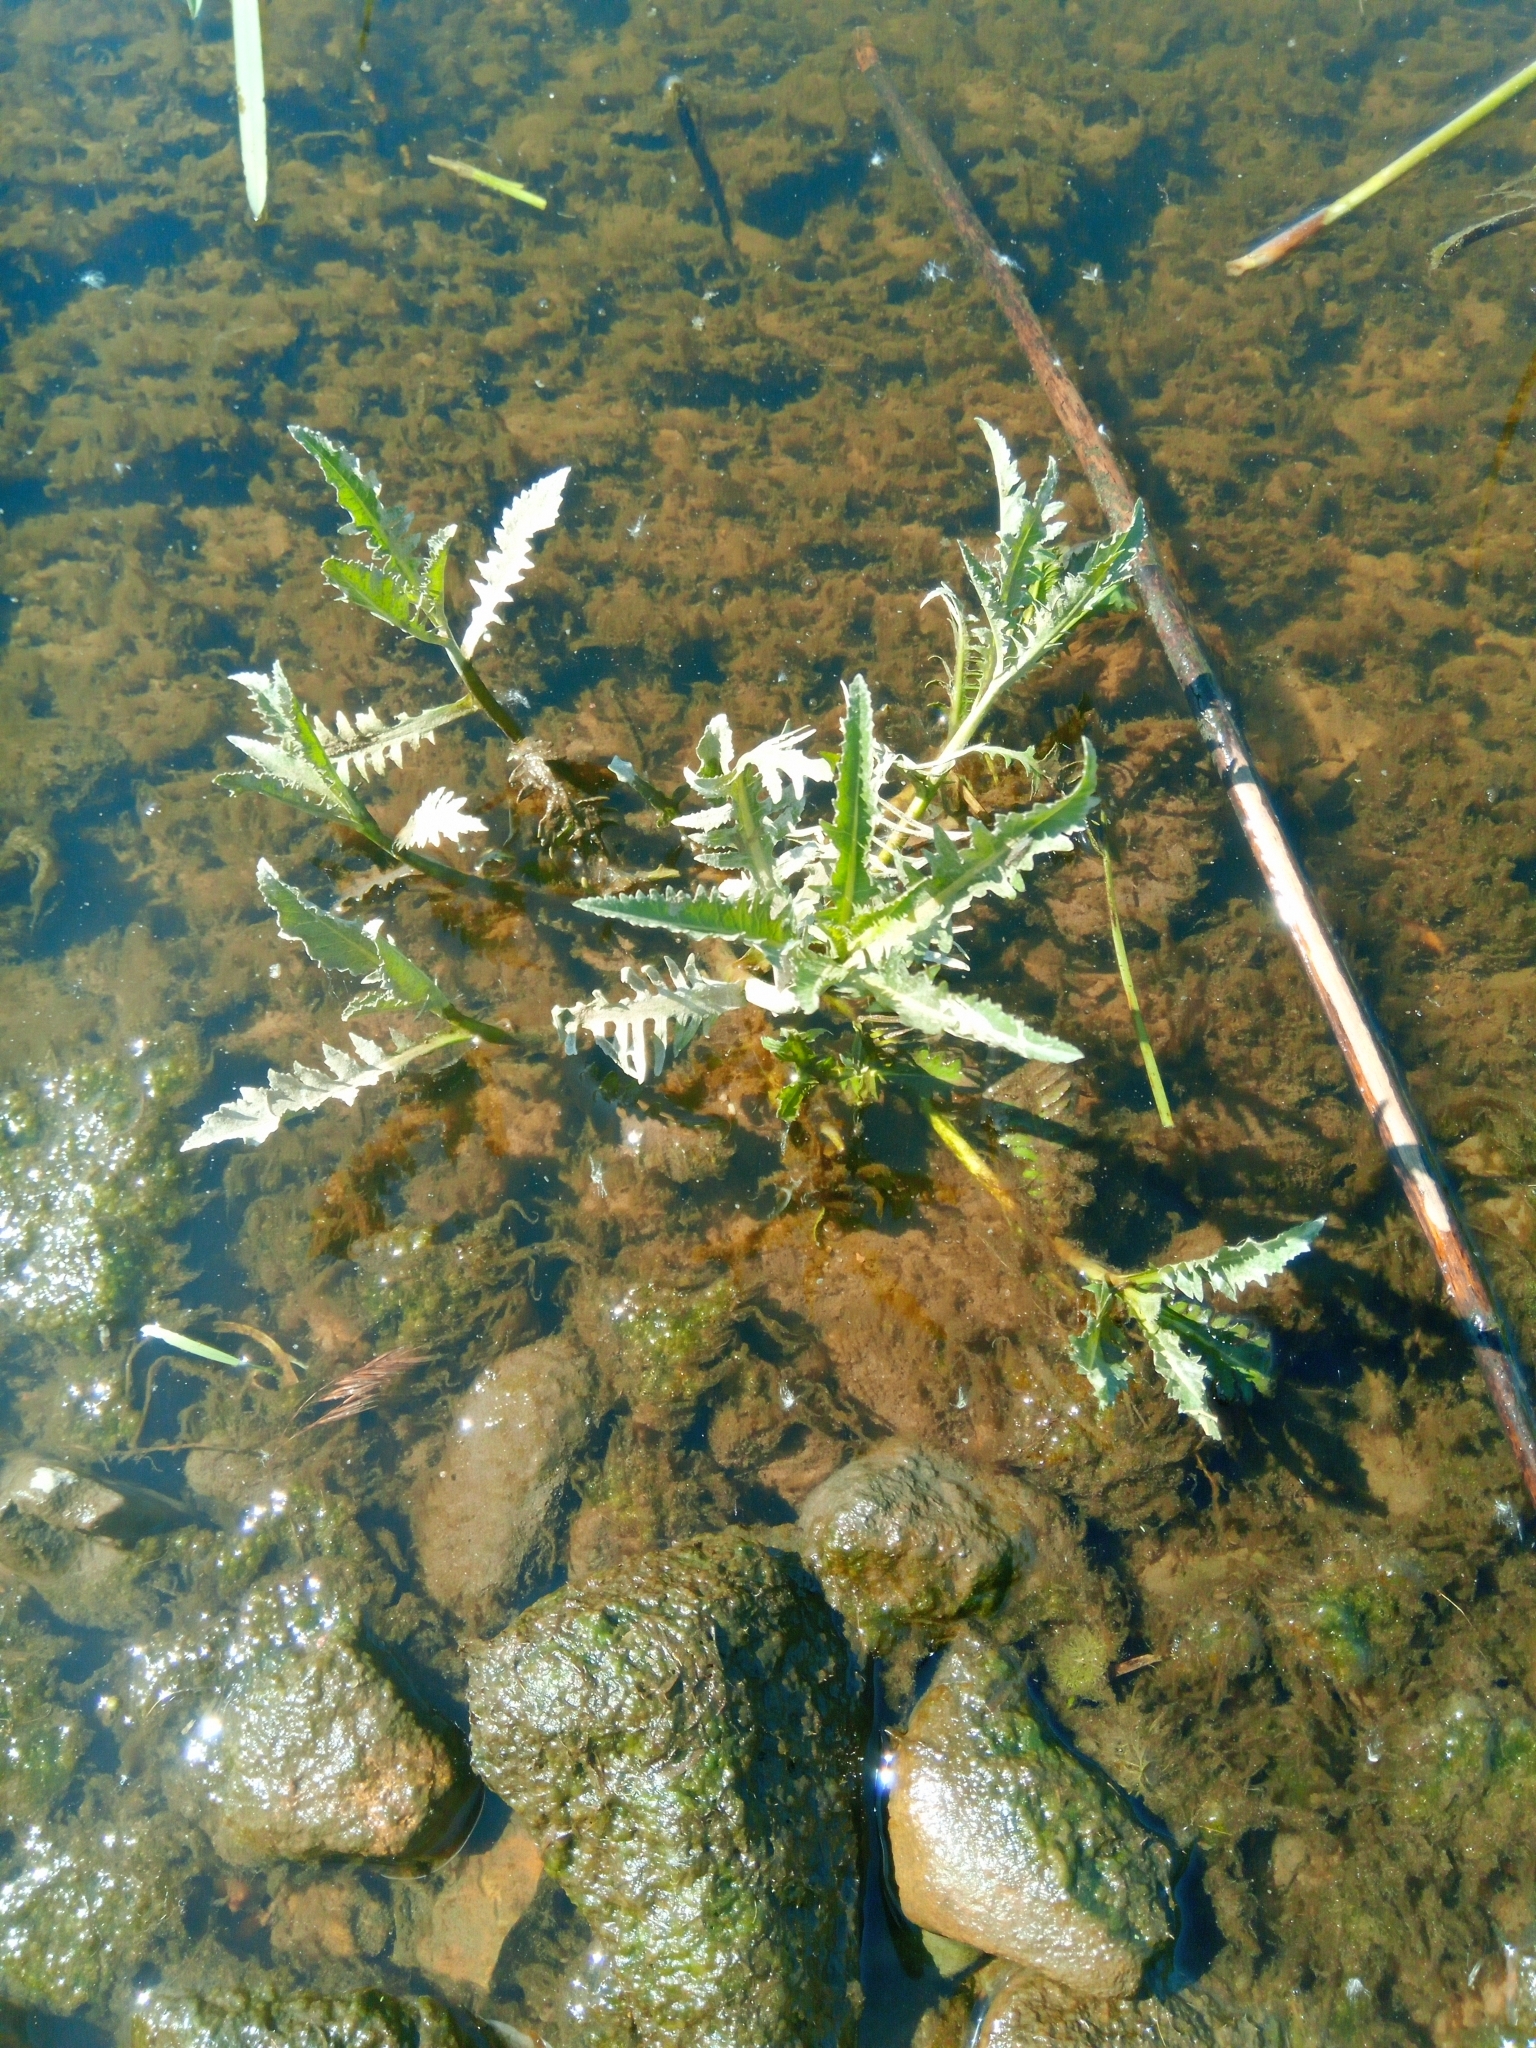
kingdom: Plantae
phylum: Tracheophyta
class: Magnoliopsida
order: Brassicales
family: Brassicaceae
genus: Rorippa
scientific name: Rorippa amphibia
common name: Great yellow-cress
